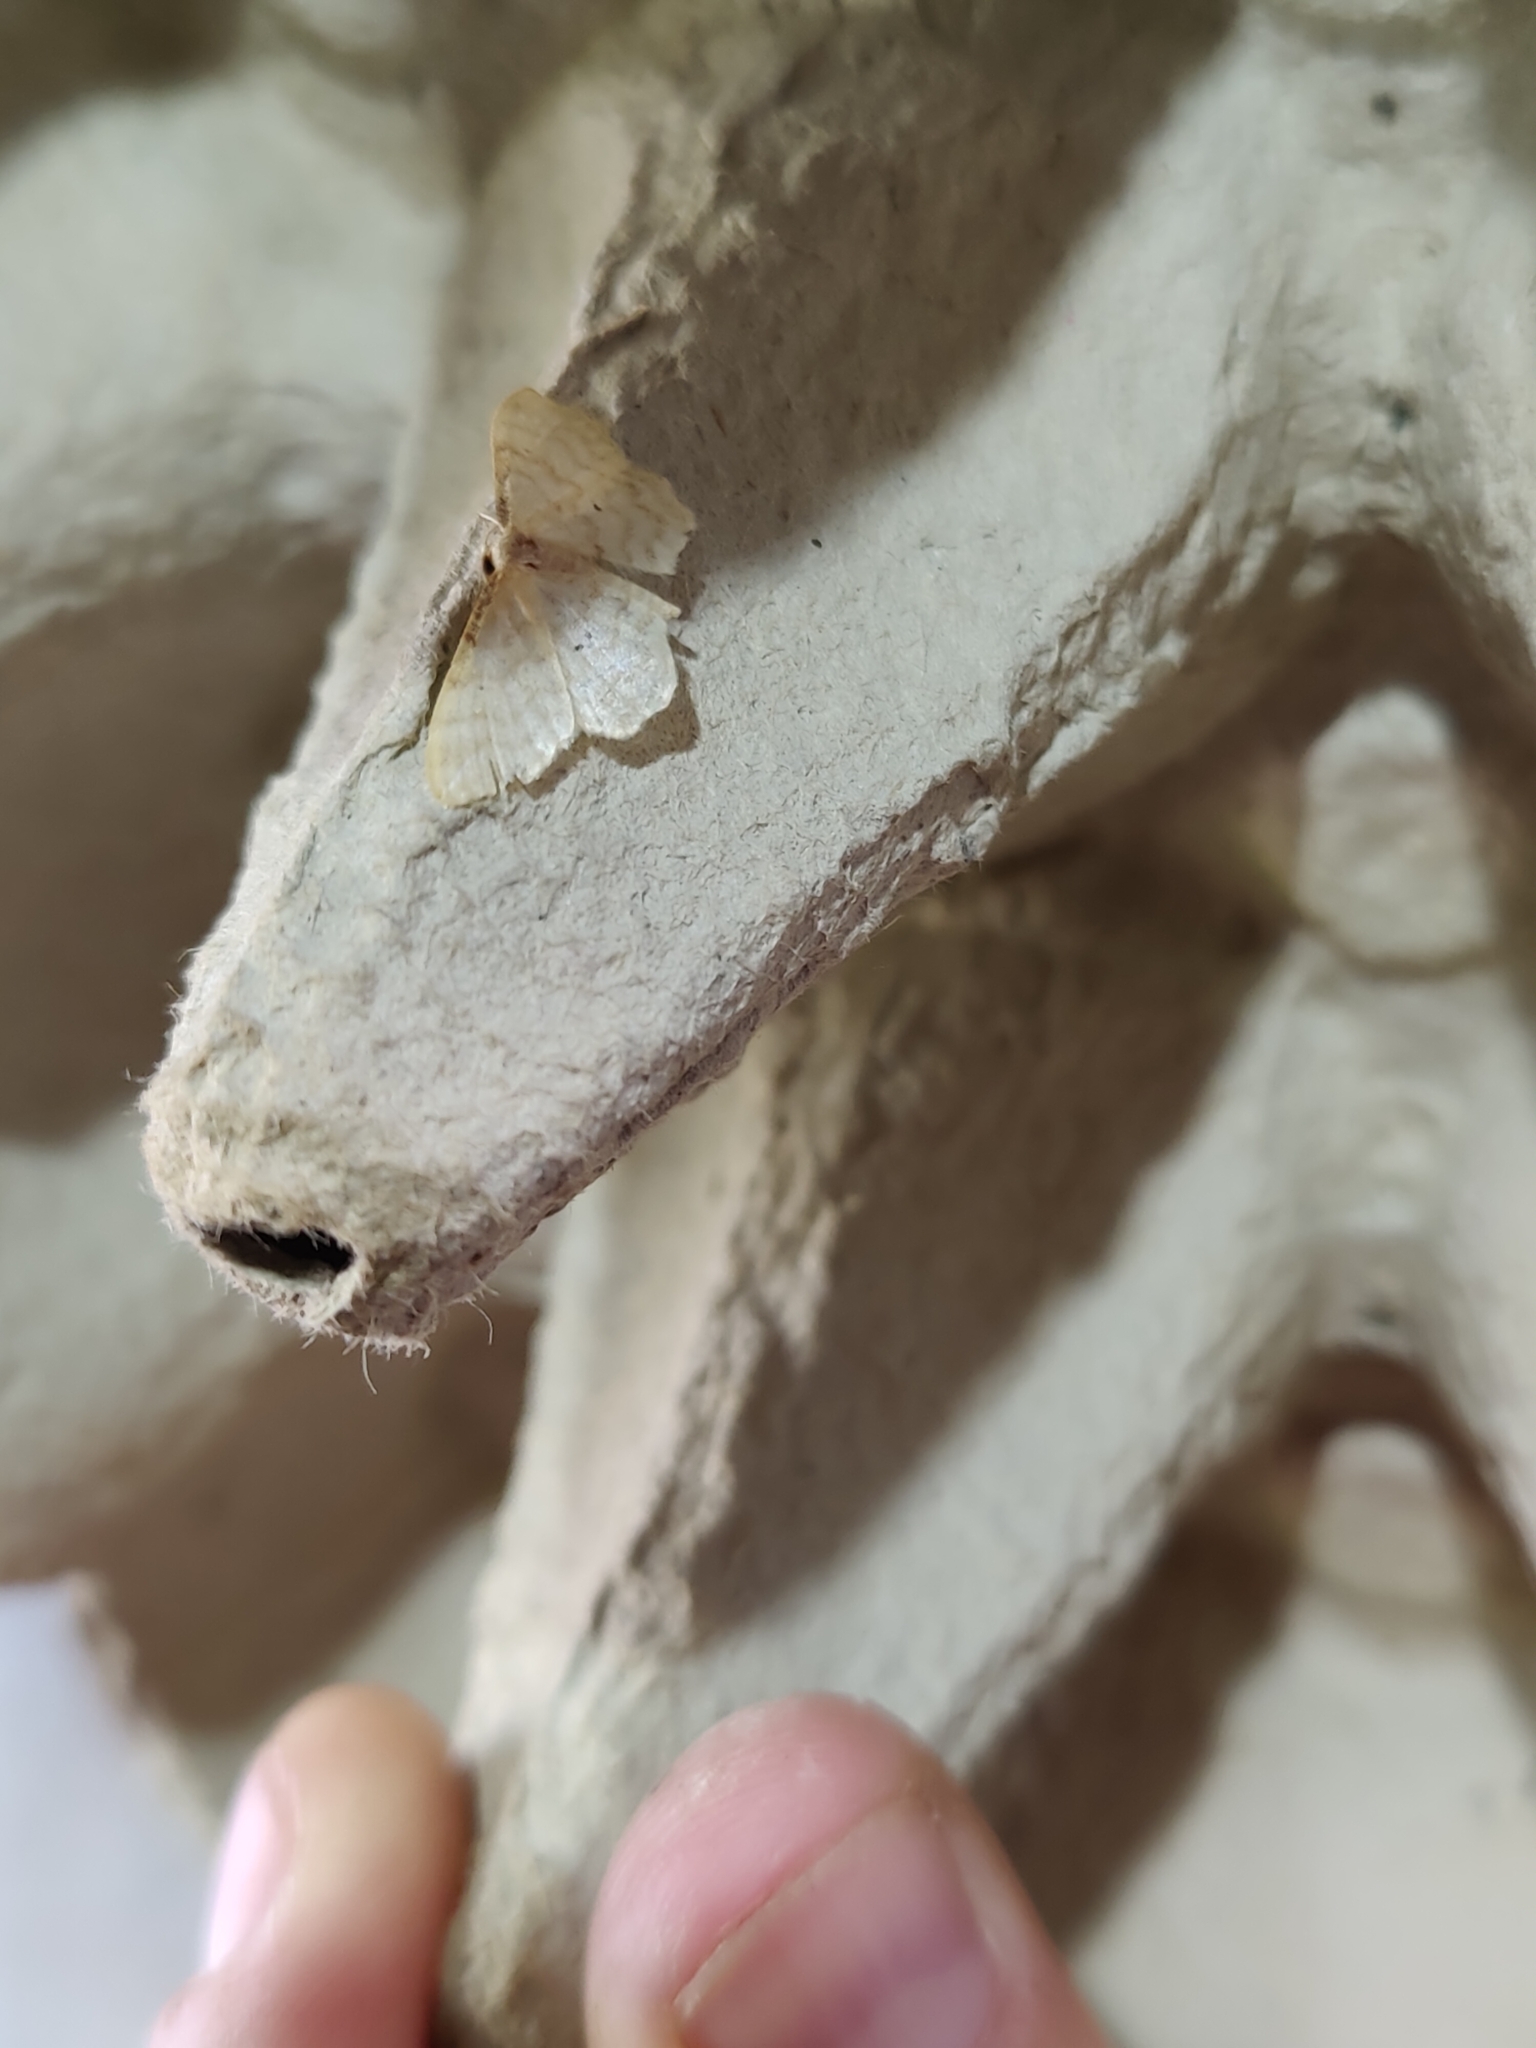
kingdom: Animalia
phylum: Arthropoda
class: Insecta
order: Lepidoptera
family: Geometridae
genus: Idaea
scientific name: Idaea fuscovenosa
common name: Dwarf cream wave
